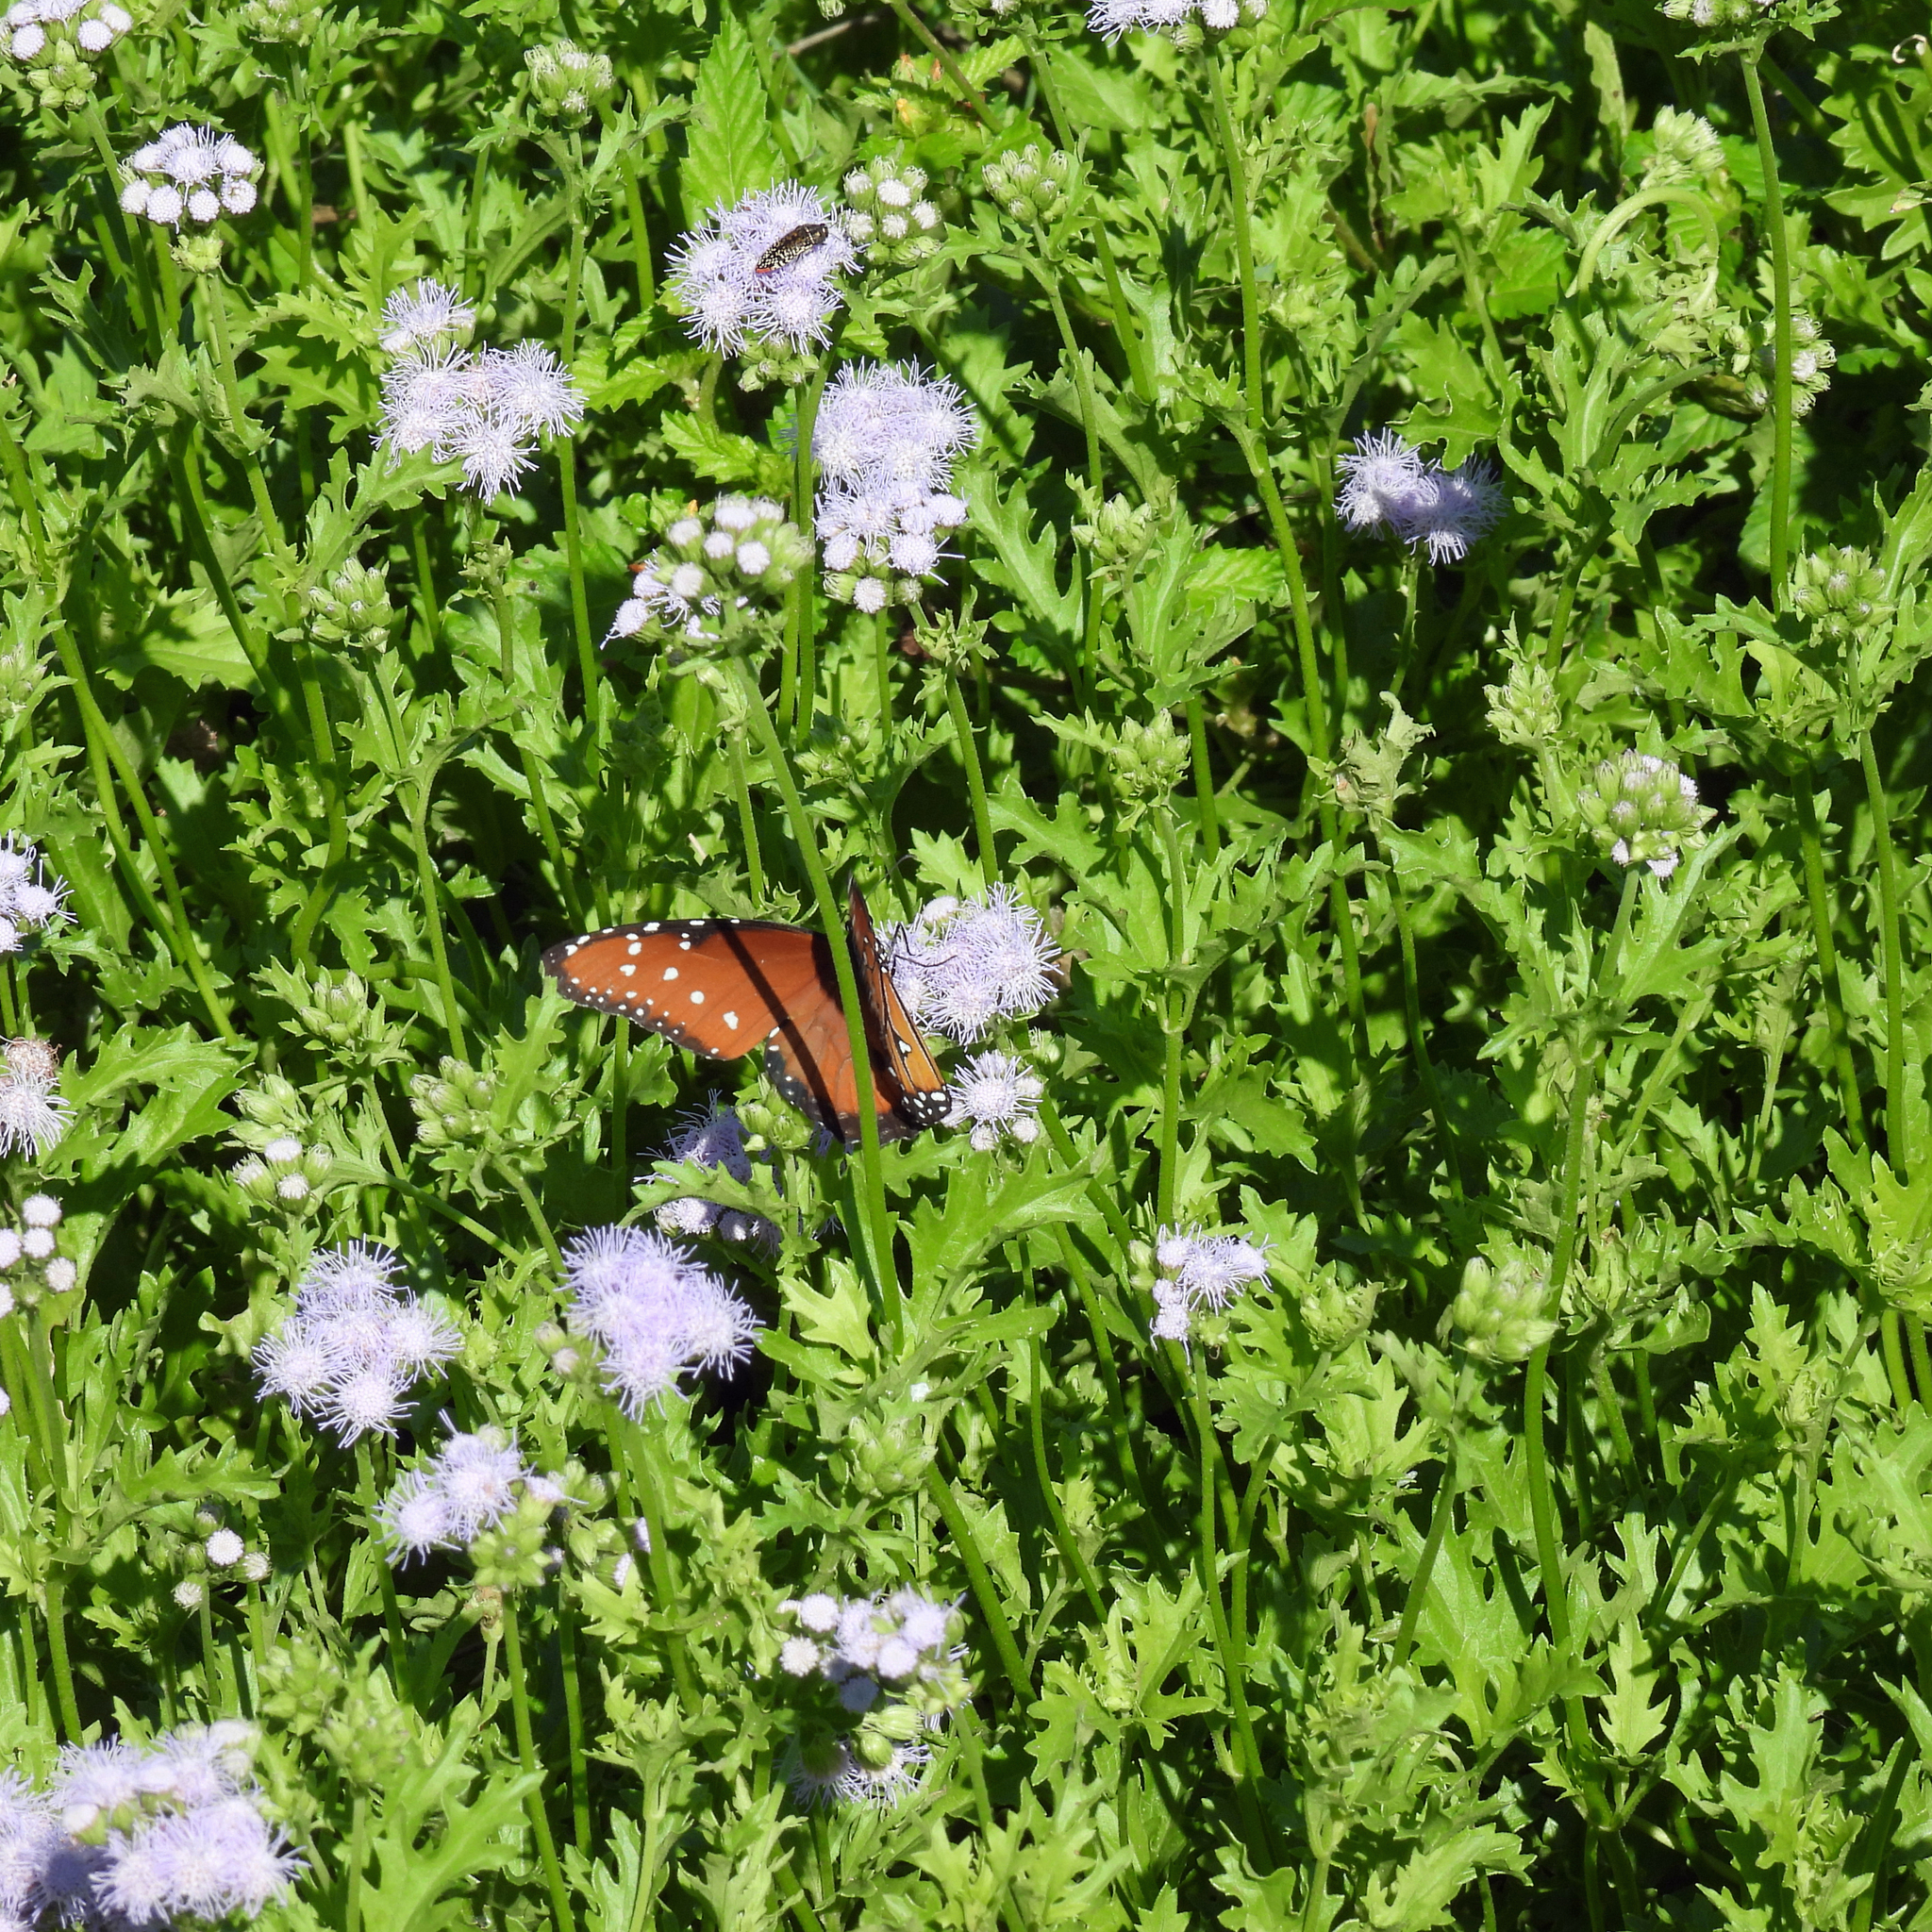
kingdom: Animalia
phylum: Arthropoda
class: Insecta
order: Lepidoptera
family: Nymphalidae
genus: Danaus
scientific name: Danaus gilippus
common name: Queen
